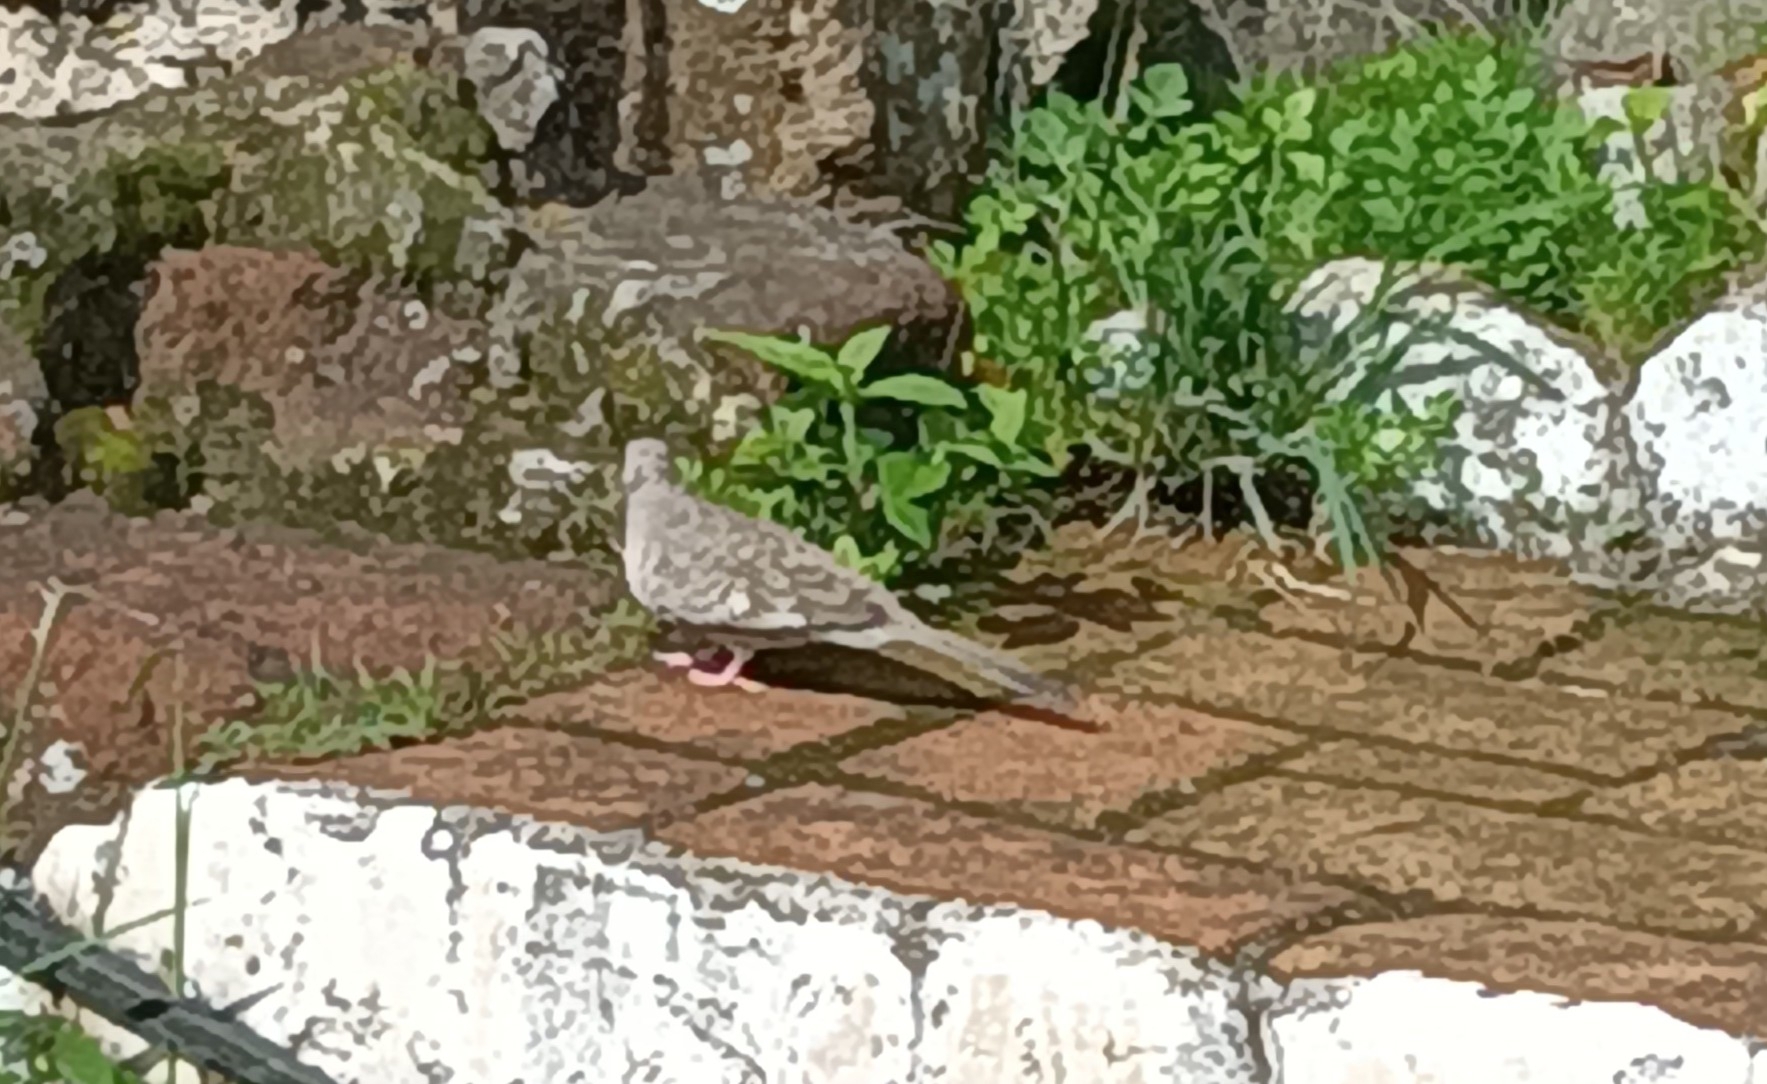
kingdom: Animalia
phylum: Chordata
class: Aves
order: Columbiformes
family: Columbidae
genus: Columbina
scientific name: Columbina inca
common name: Inca dove
